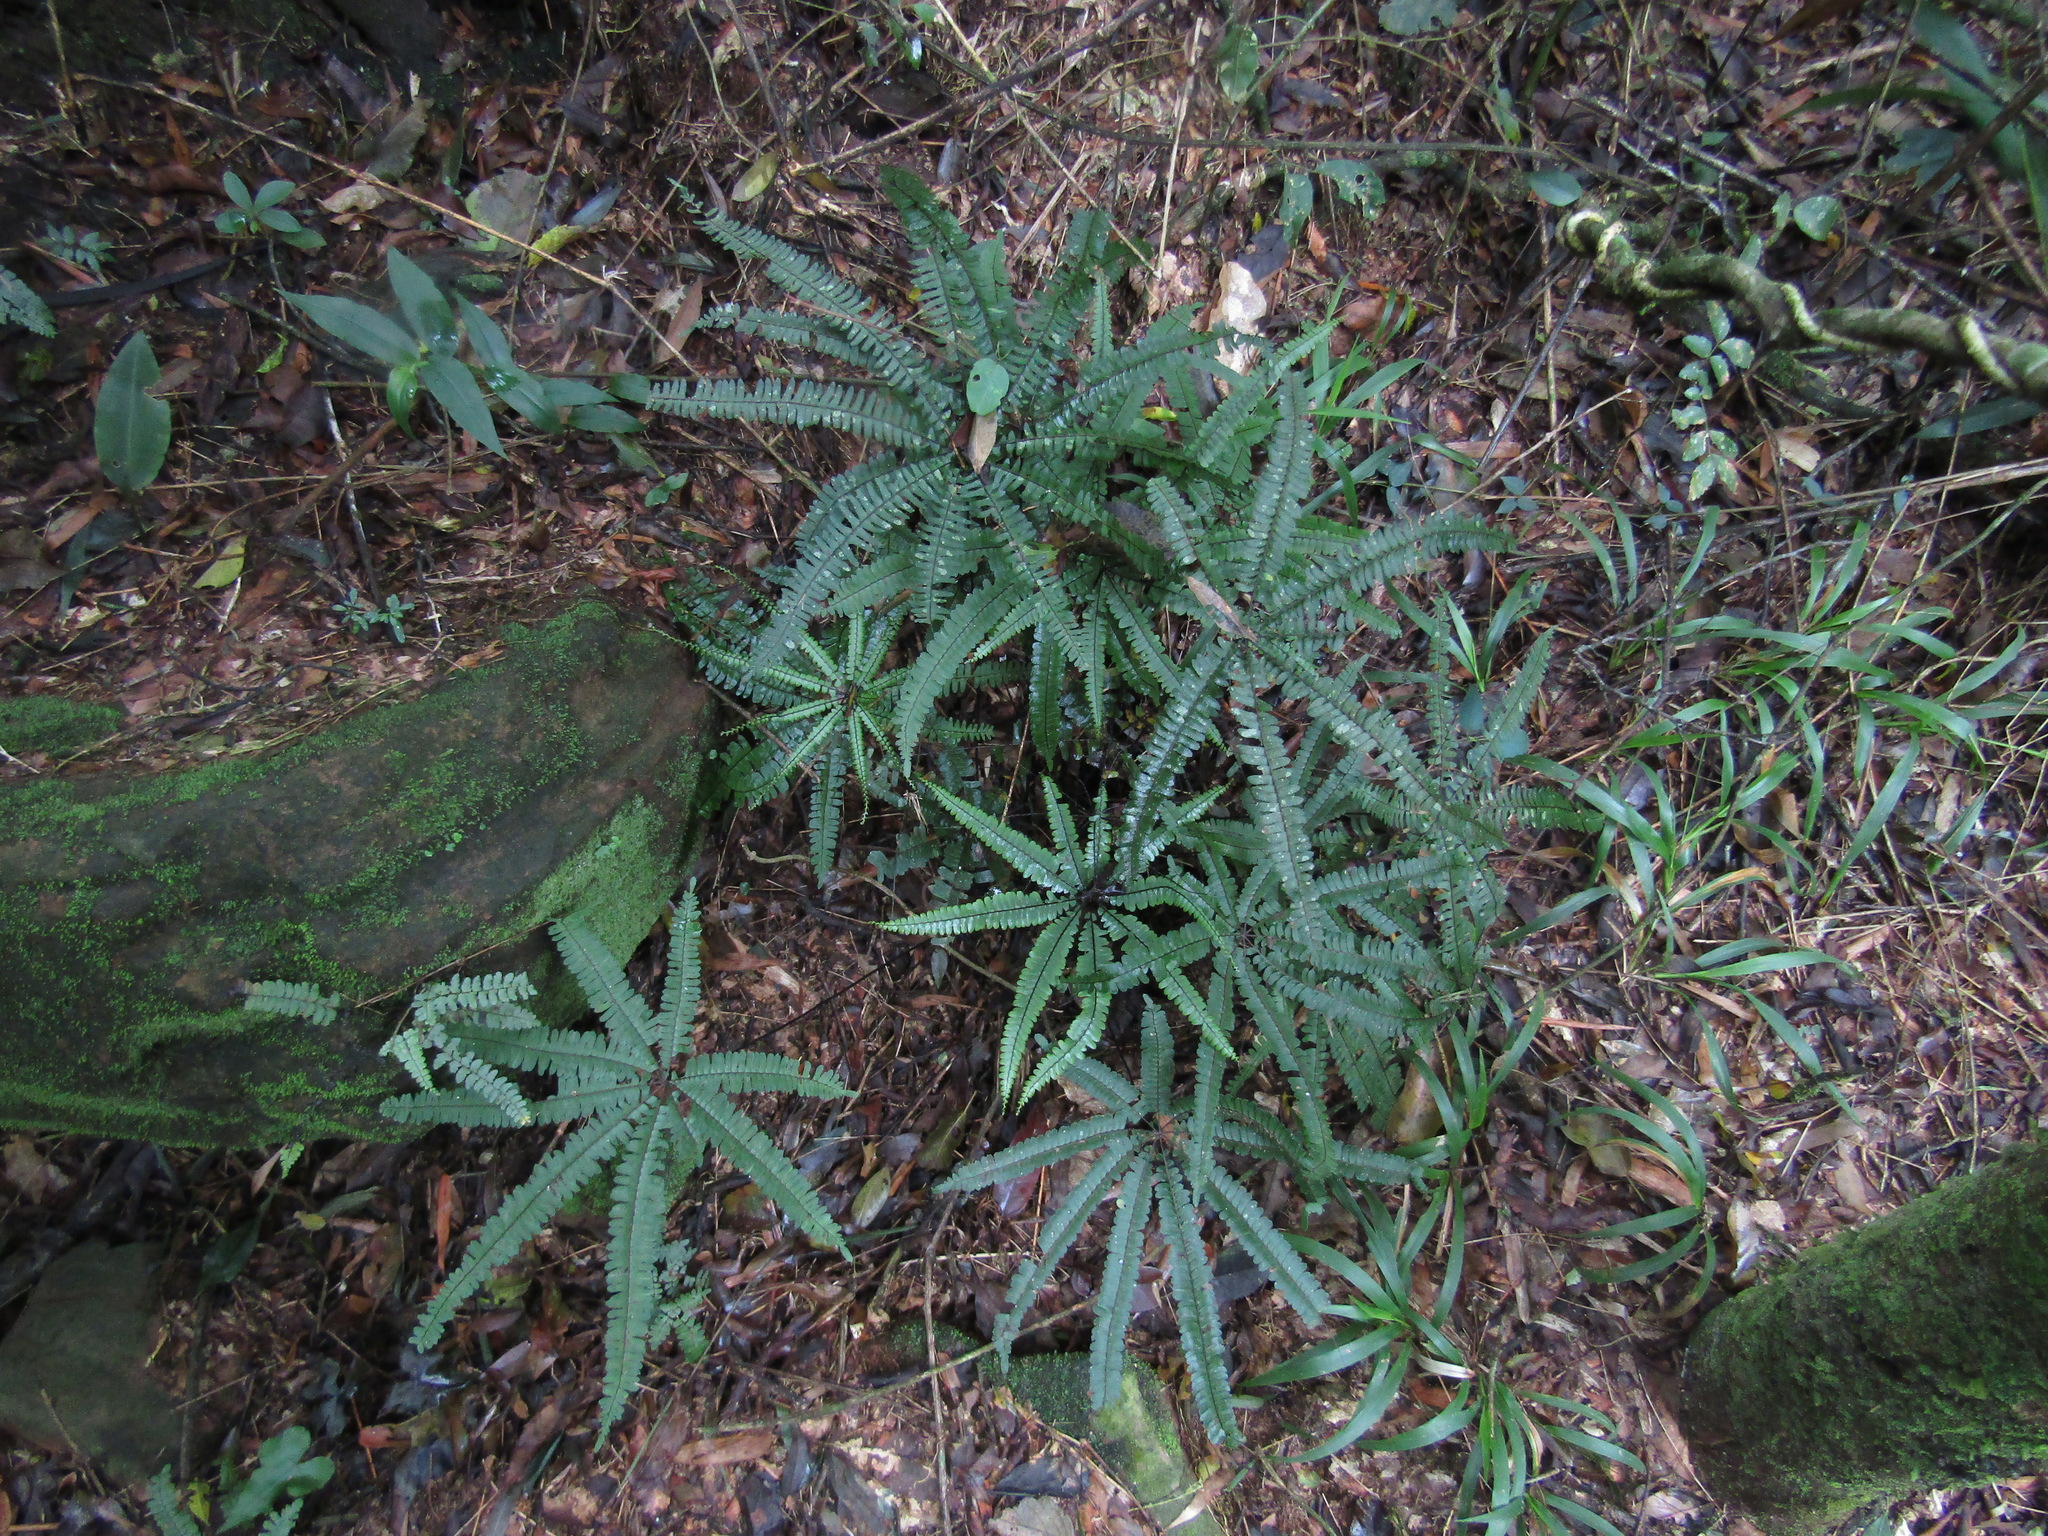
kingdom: Plantae
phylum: Tracheophyta
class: Polypodiopsida
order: Polypodiales
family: Pteridaceae
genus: Adiantopsis
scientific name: Adiantopsis radiata
